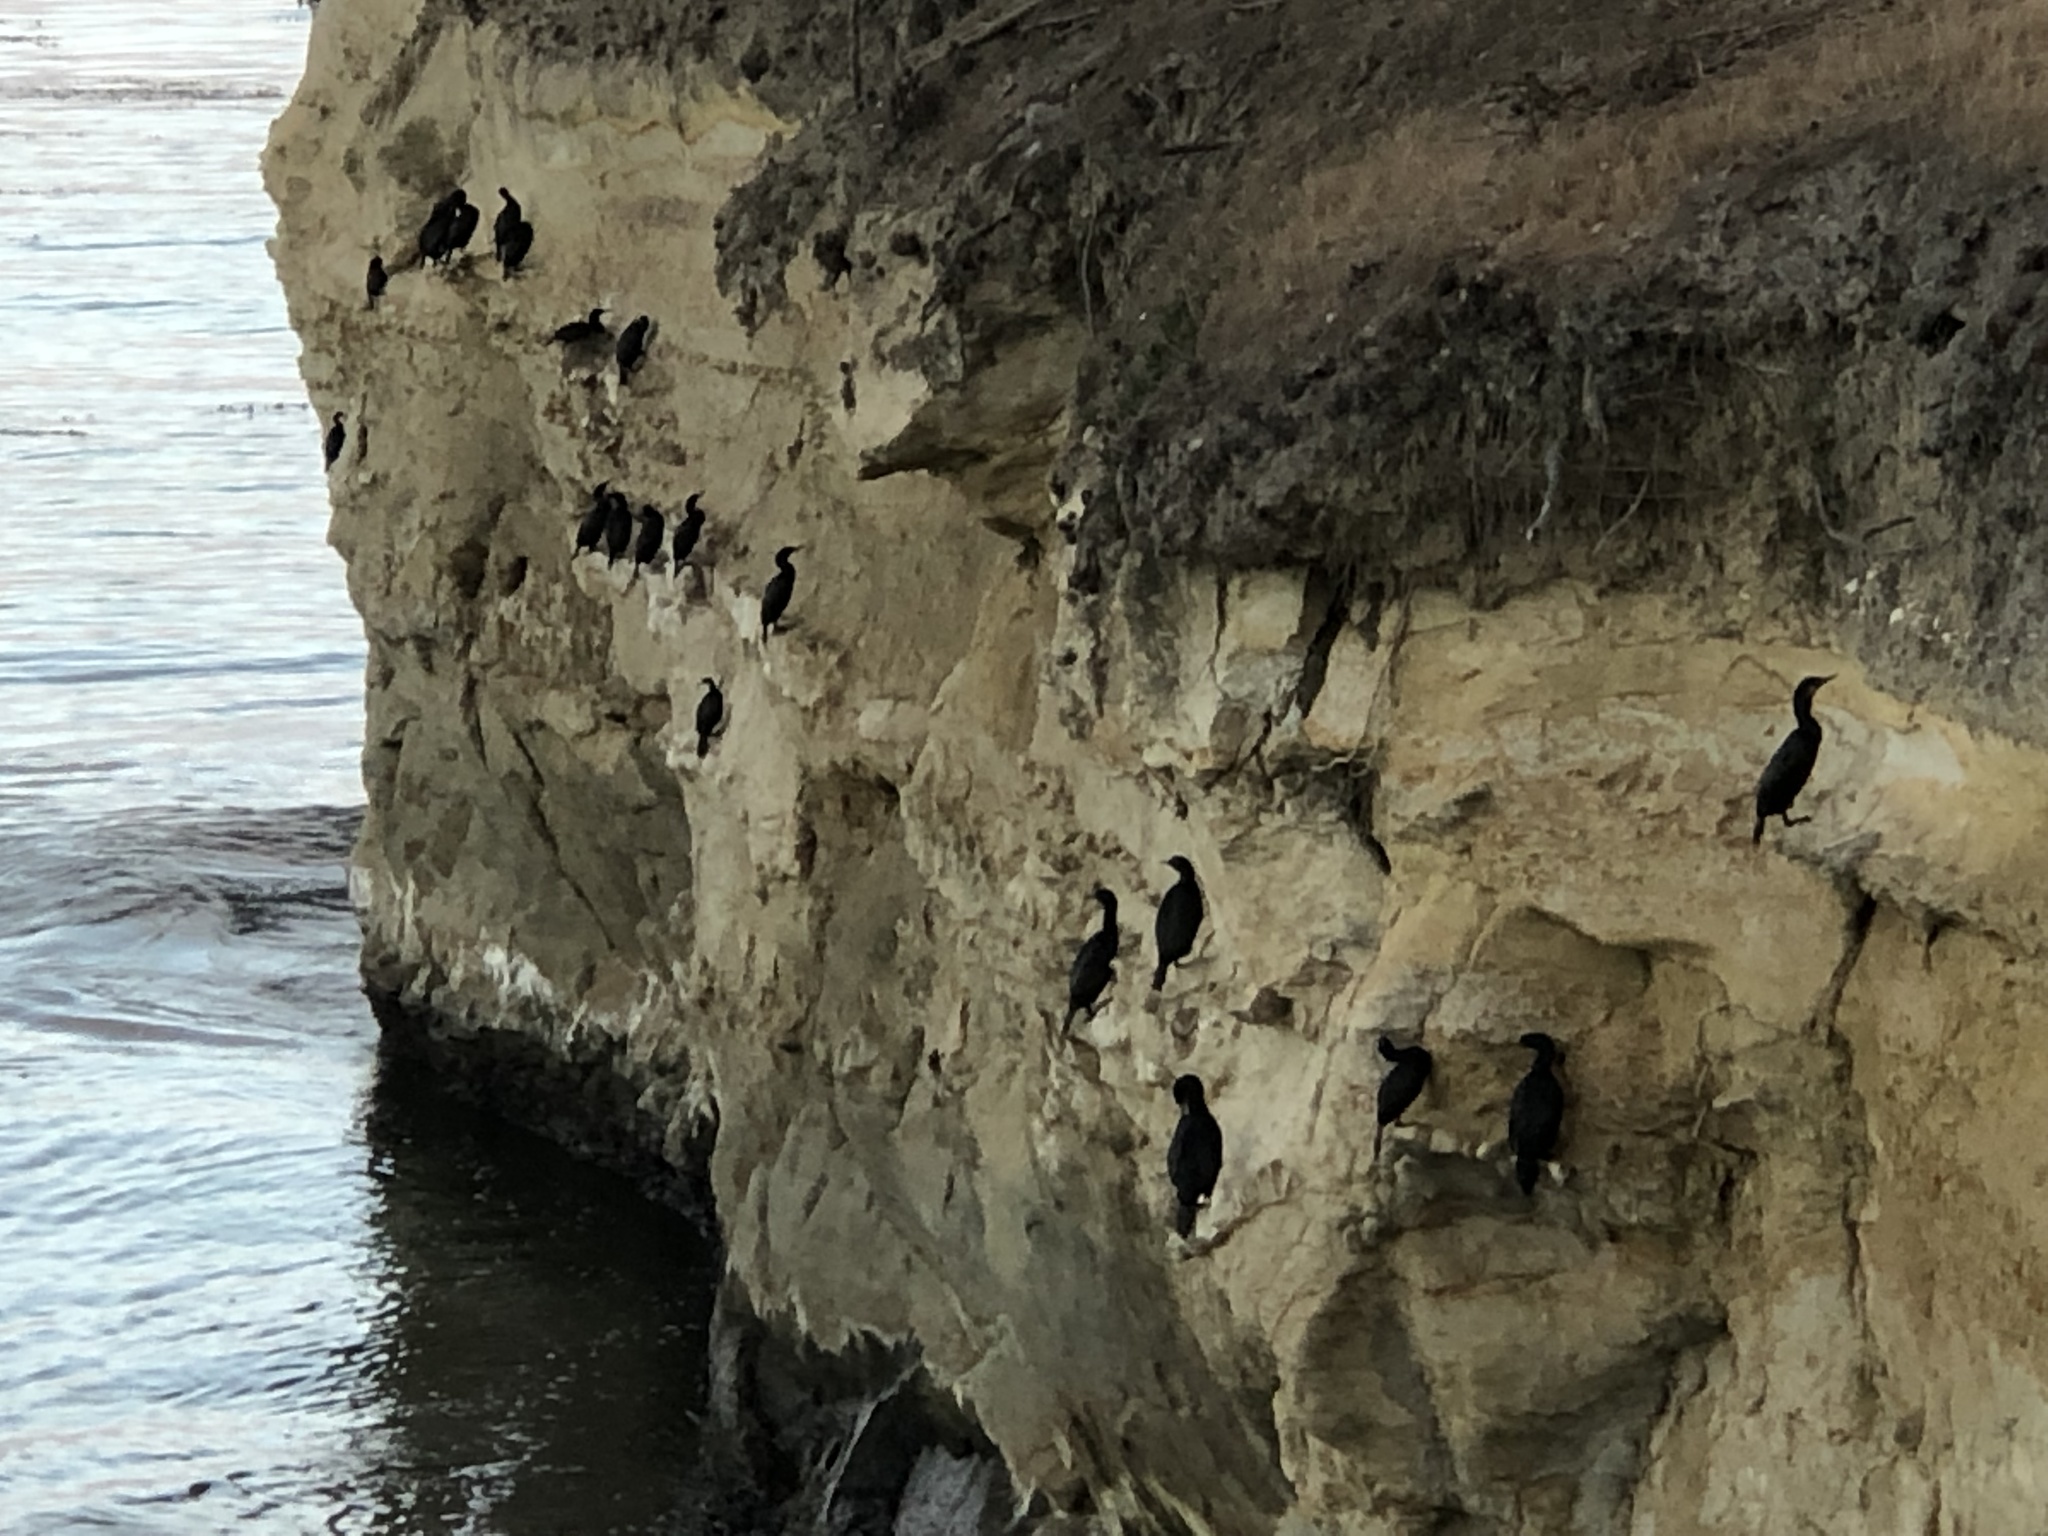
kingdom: Animalia
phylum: Chordata
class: Aves
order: Suliformes
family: Phalacrocoracidae
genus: Urile
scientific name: Urile penicillatus
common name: Brandt's cormorant
